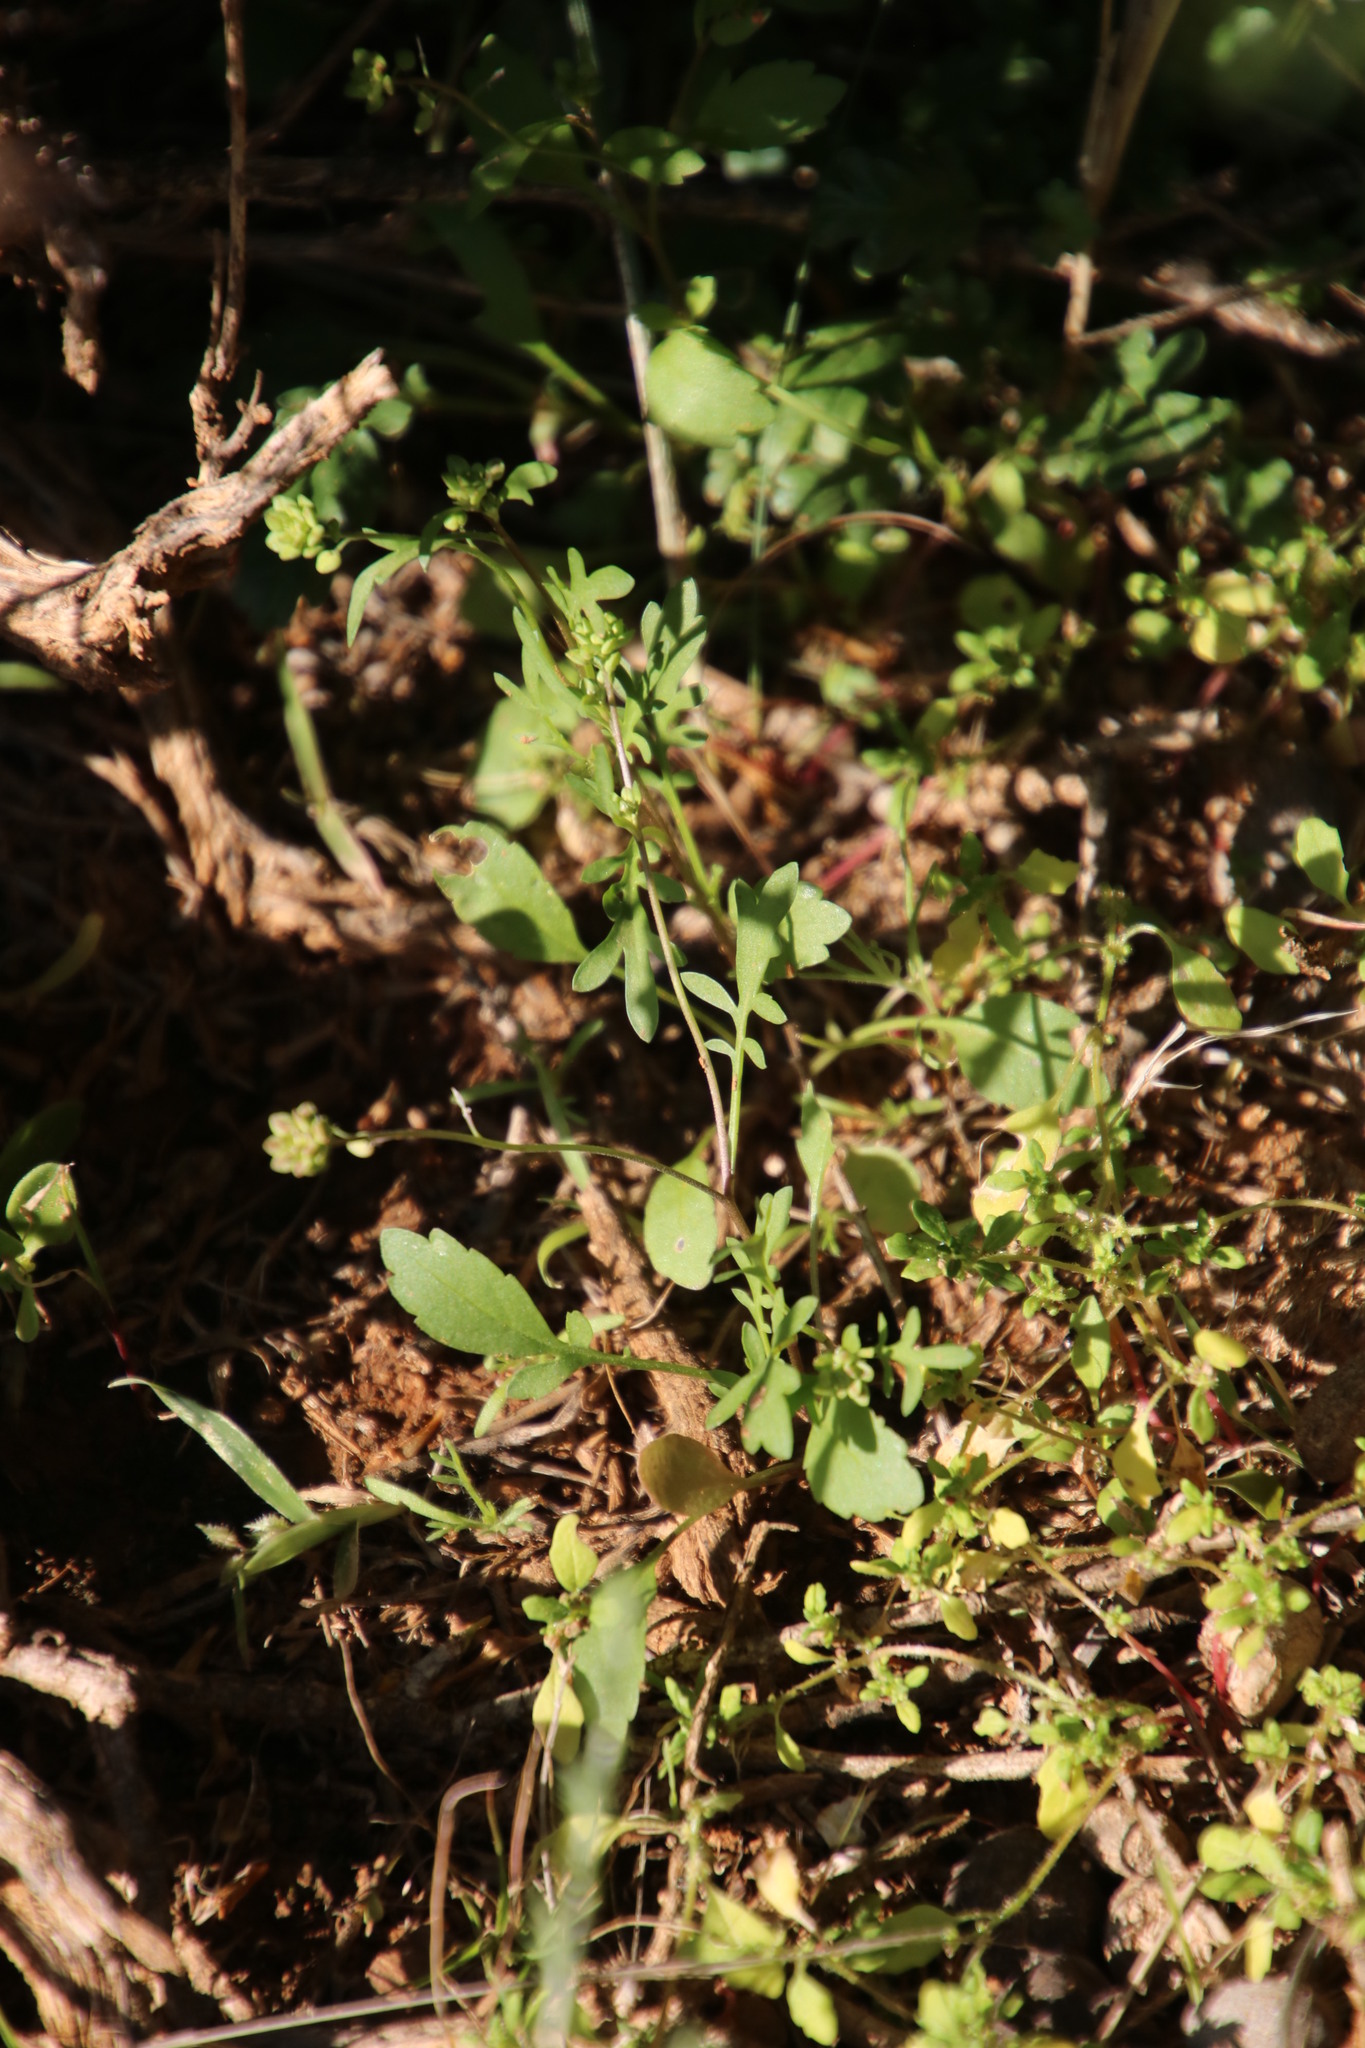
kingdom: Plantae
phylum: Tracheophyta
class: Magnoliopsida
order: Brassicales
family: Brassicaceae
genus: Lepidium
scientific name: Lepidium desertorum
